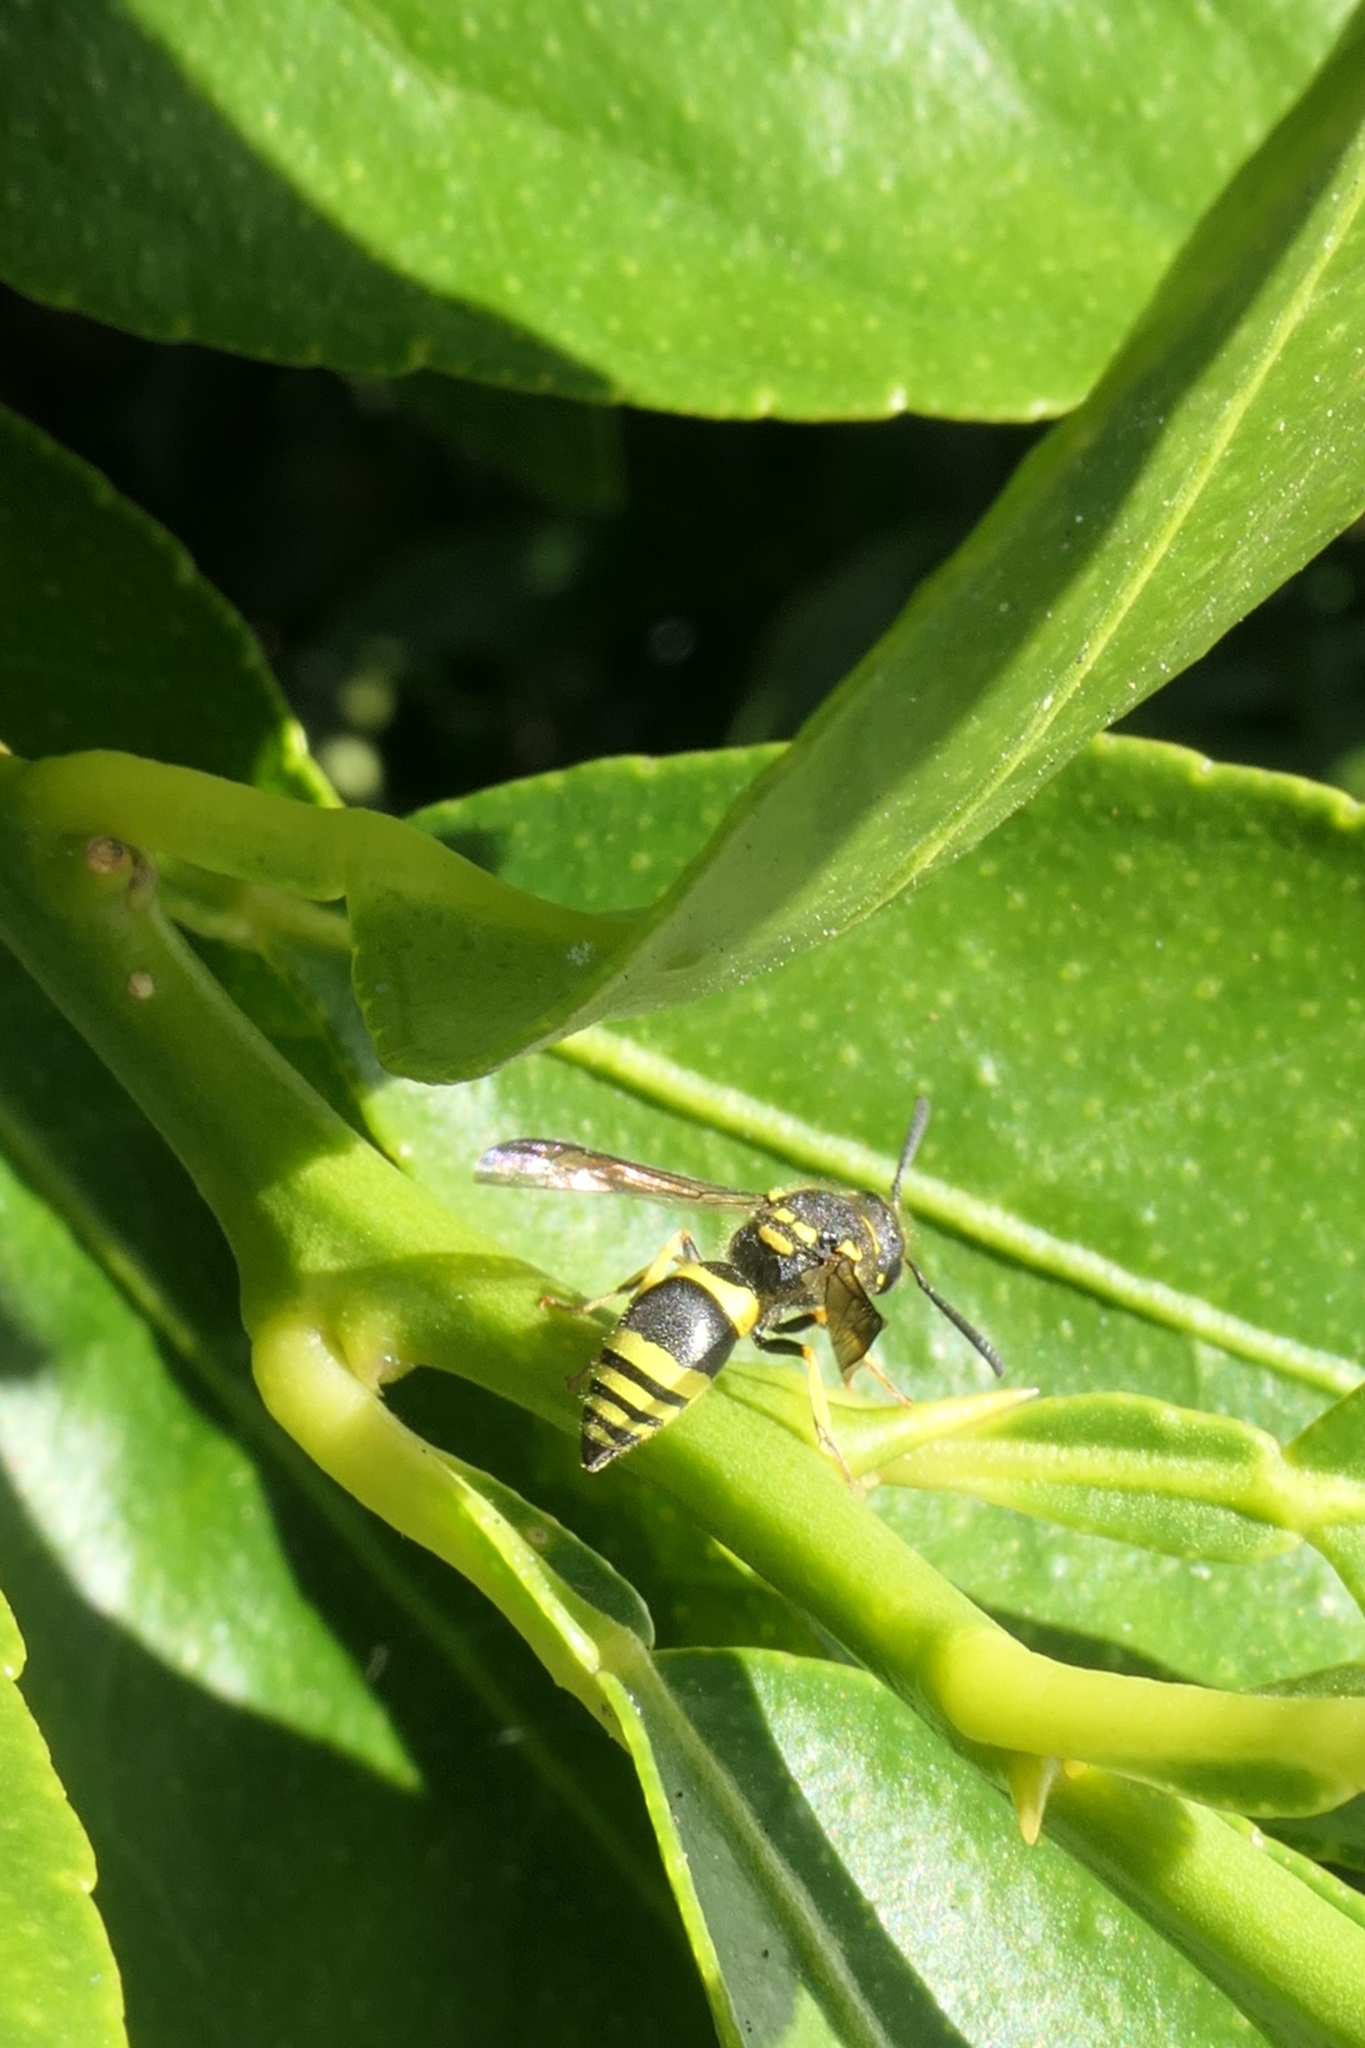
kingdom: Animalia
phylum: Arthropoda
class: Insecta
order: Hymenoptera
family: Vespidae
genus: Ancistrocerus
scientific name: Ancistrocerus gazella
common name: European tube wasp
